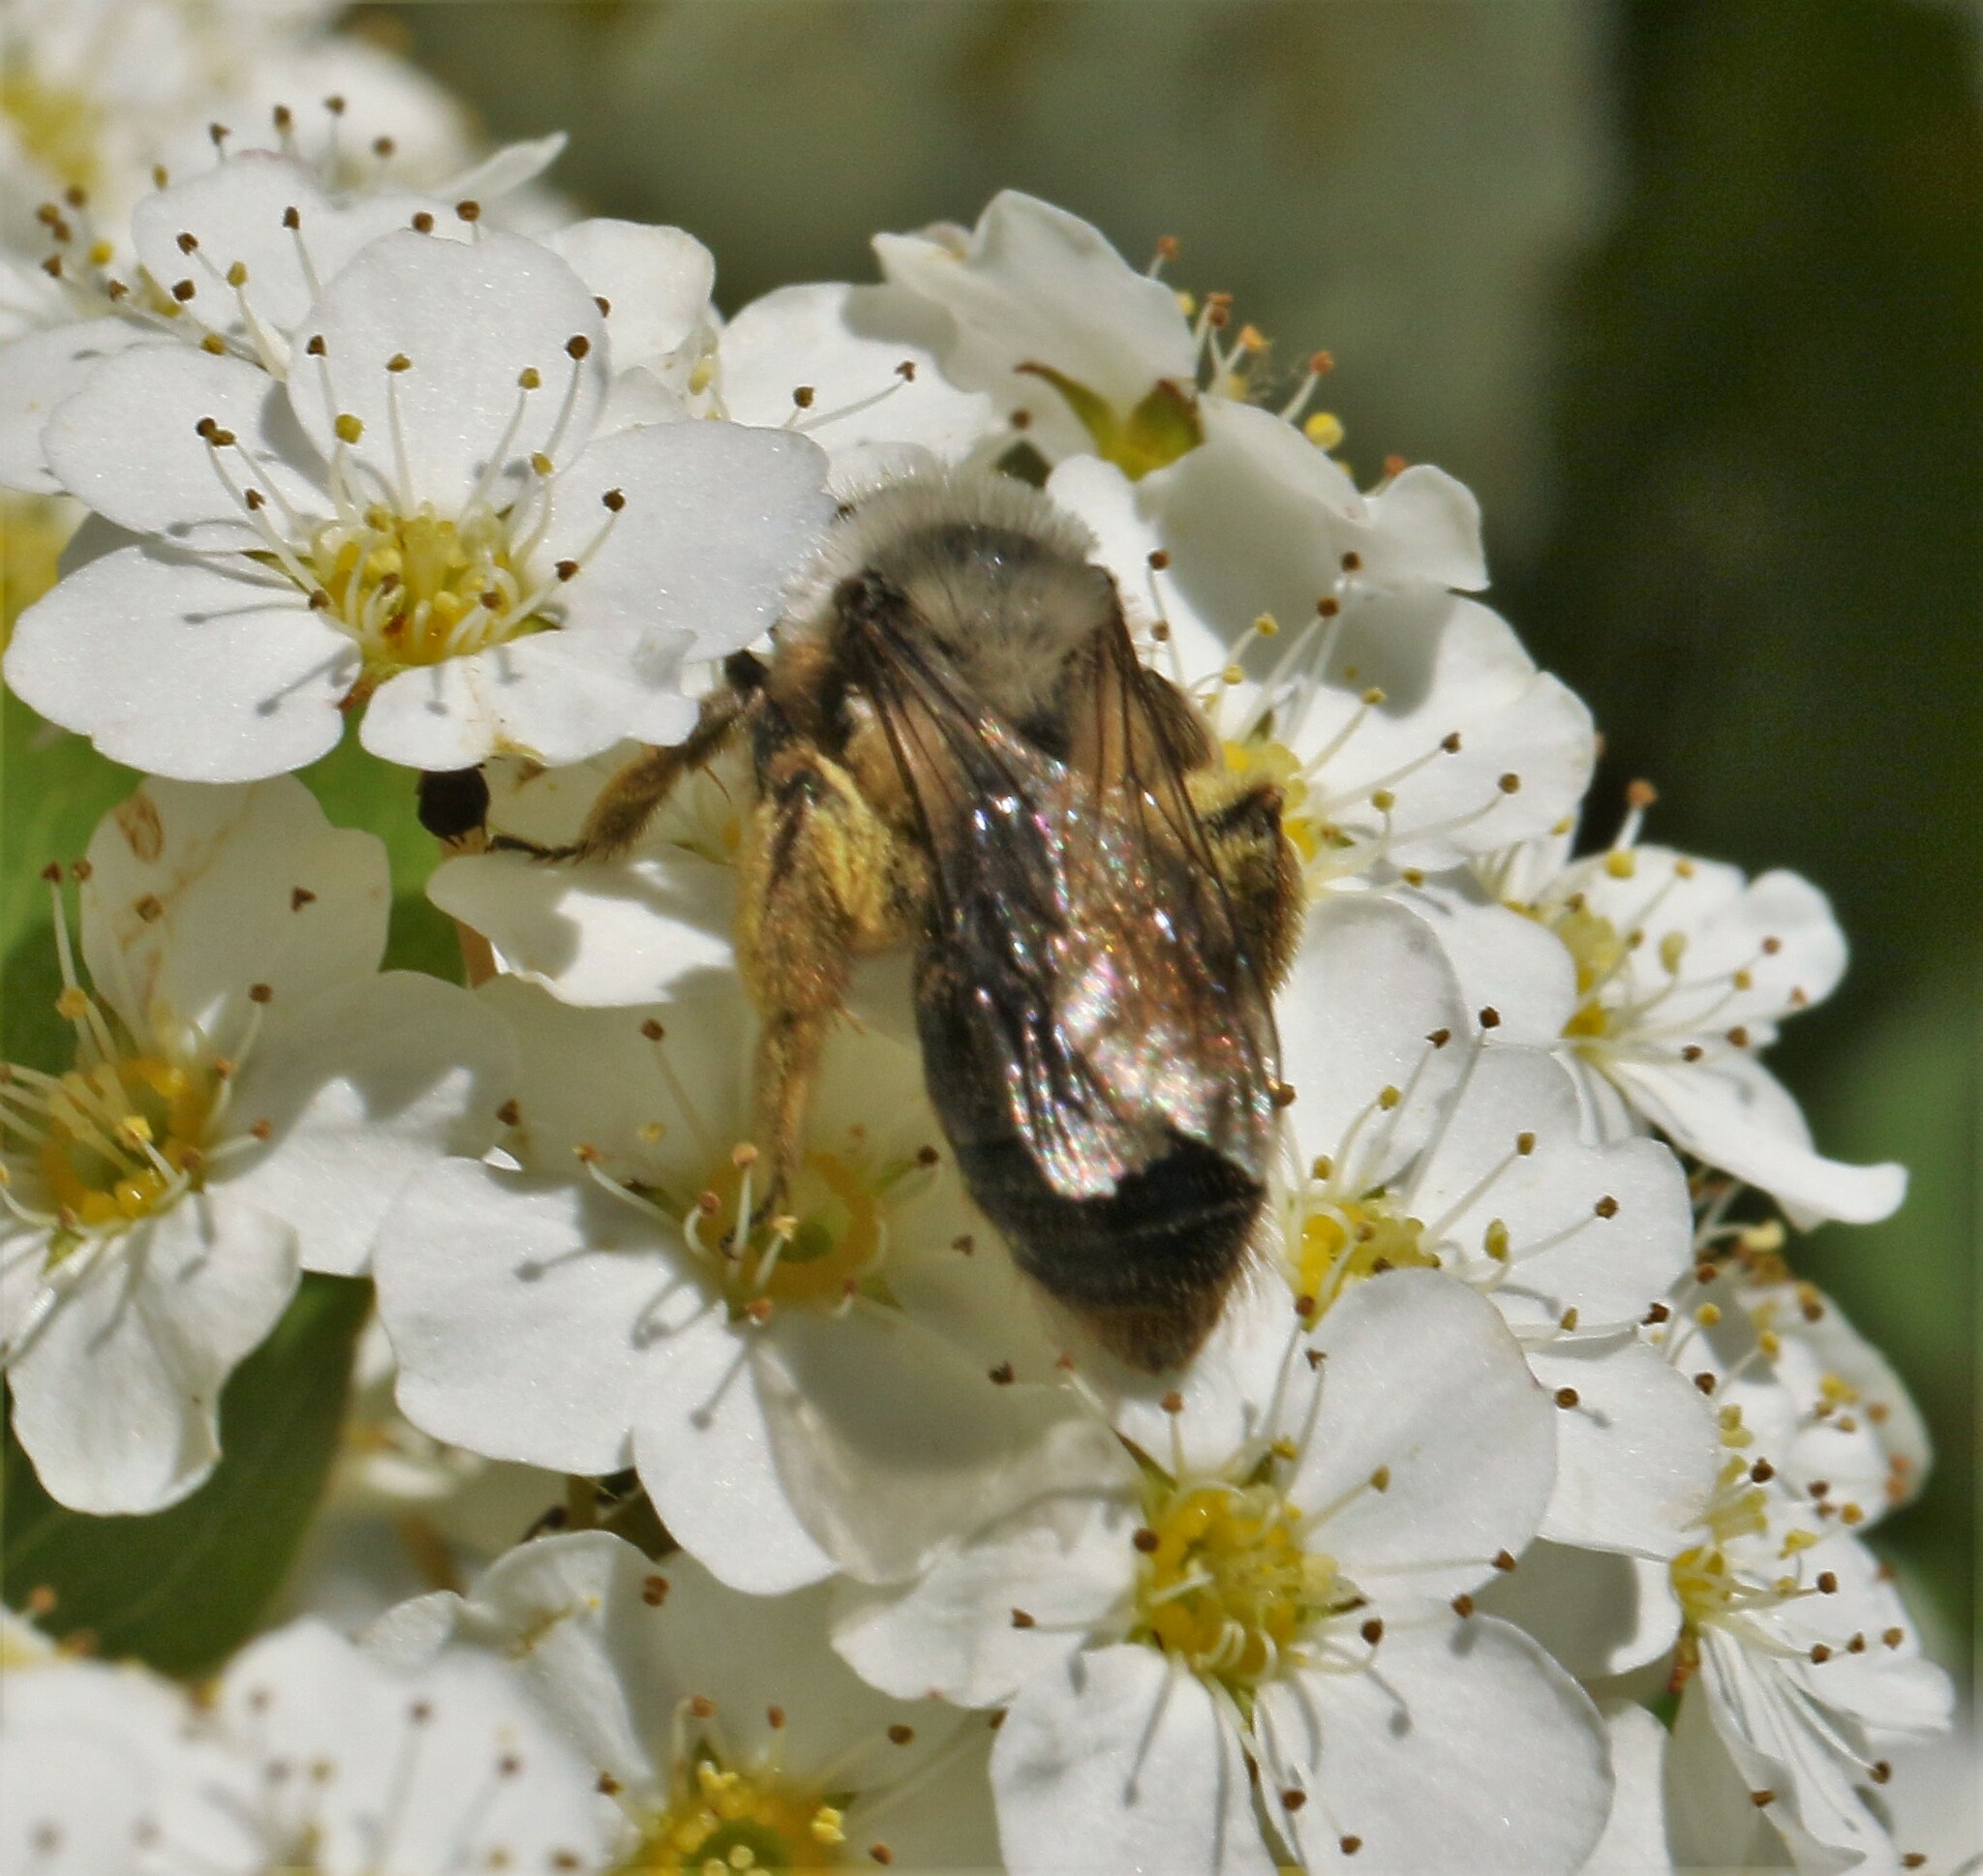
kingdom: Animalia
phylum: Arthropoda
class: Insecta
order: Hymenoptera
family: Andrenidae
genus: Andrena
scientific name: Andrena
